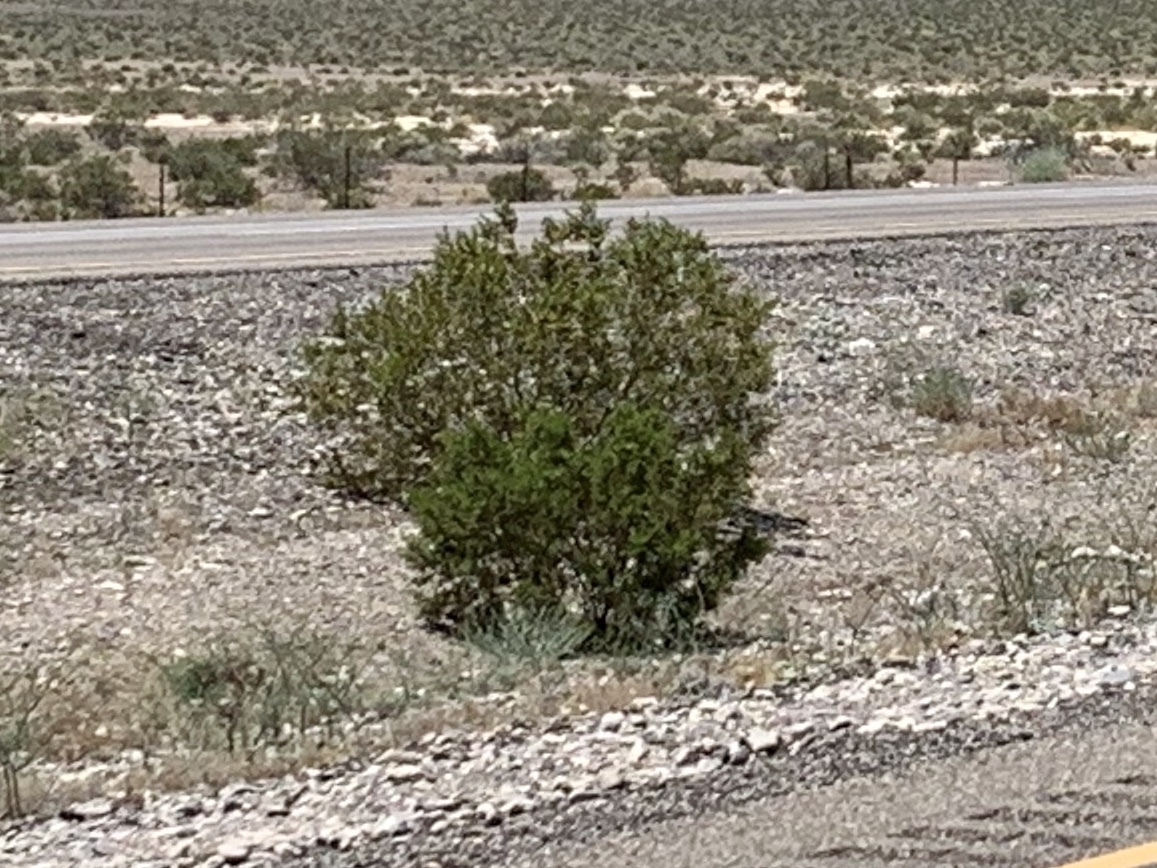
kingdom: Plantae
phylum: Tracheophyta
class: Magnoliopsida
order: Zygophyllales
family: Zygophyllaceae
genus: Larrea
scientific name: Larrea tridentata
